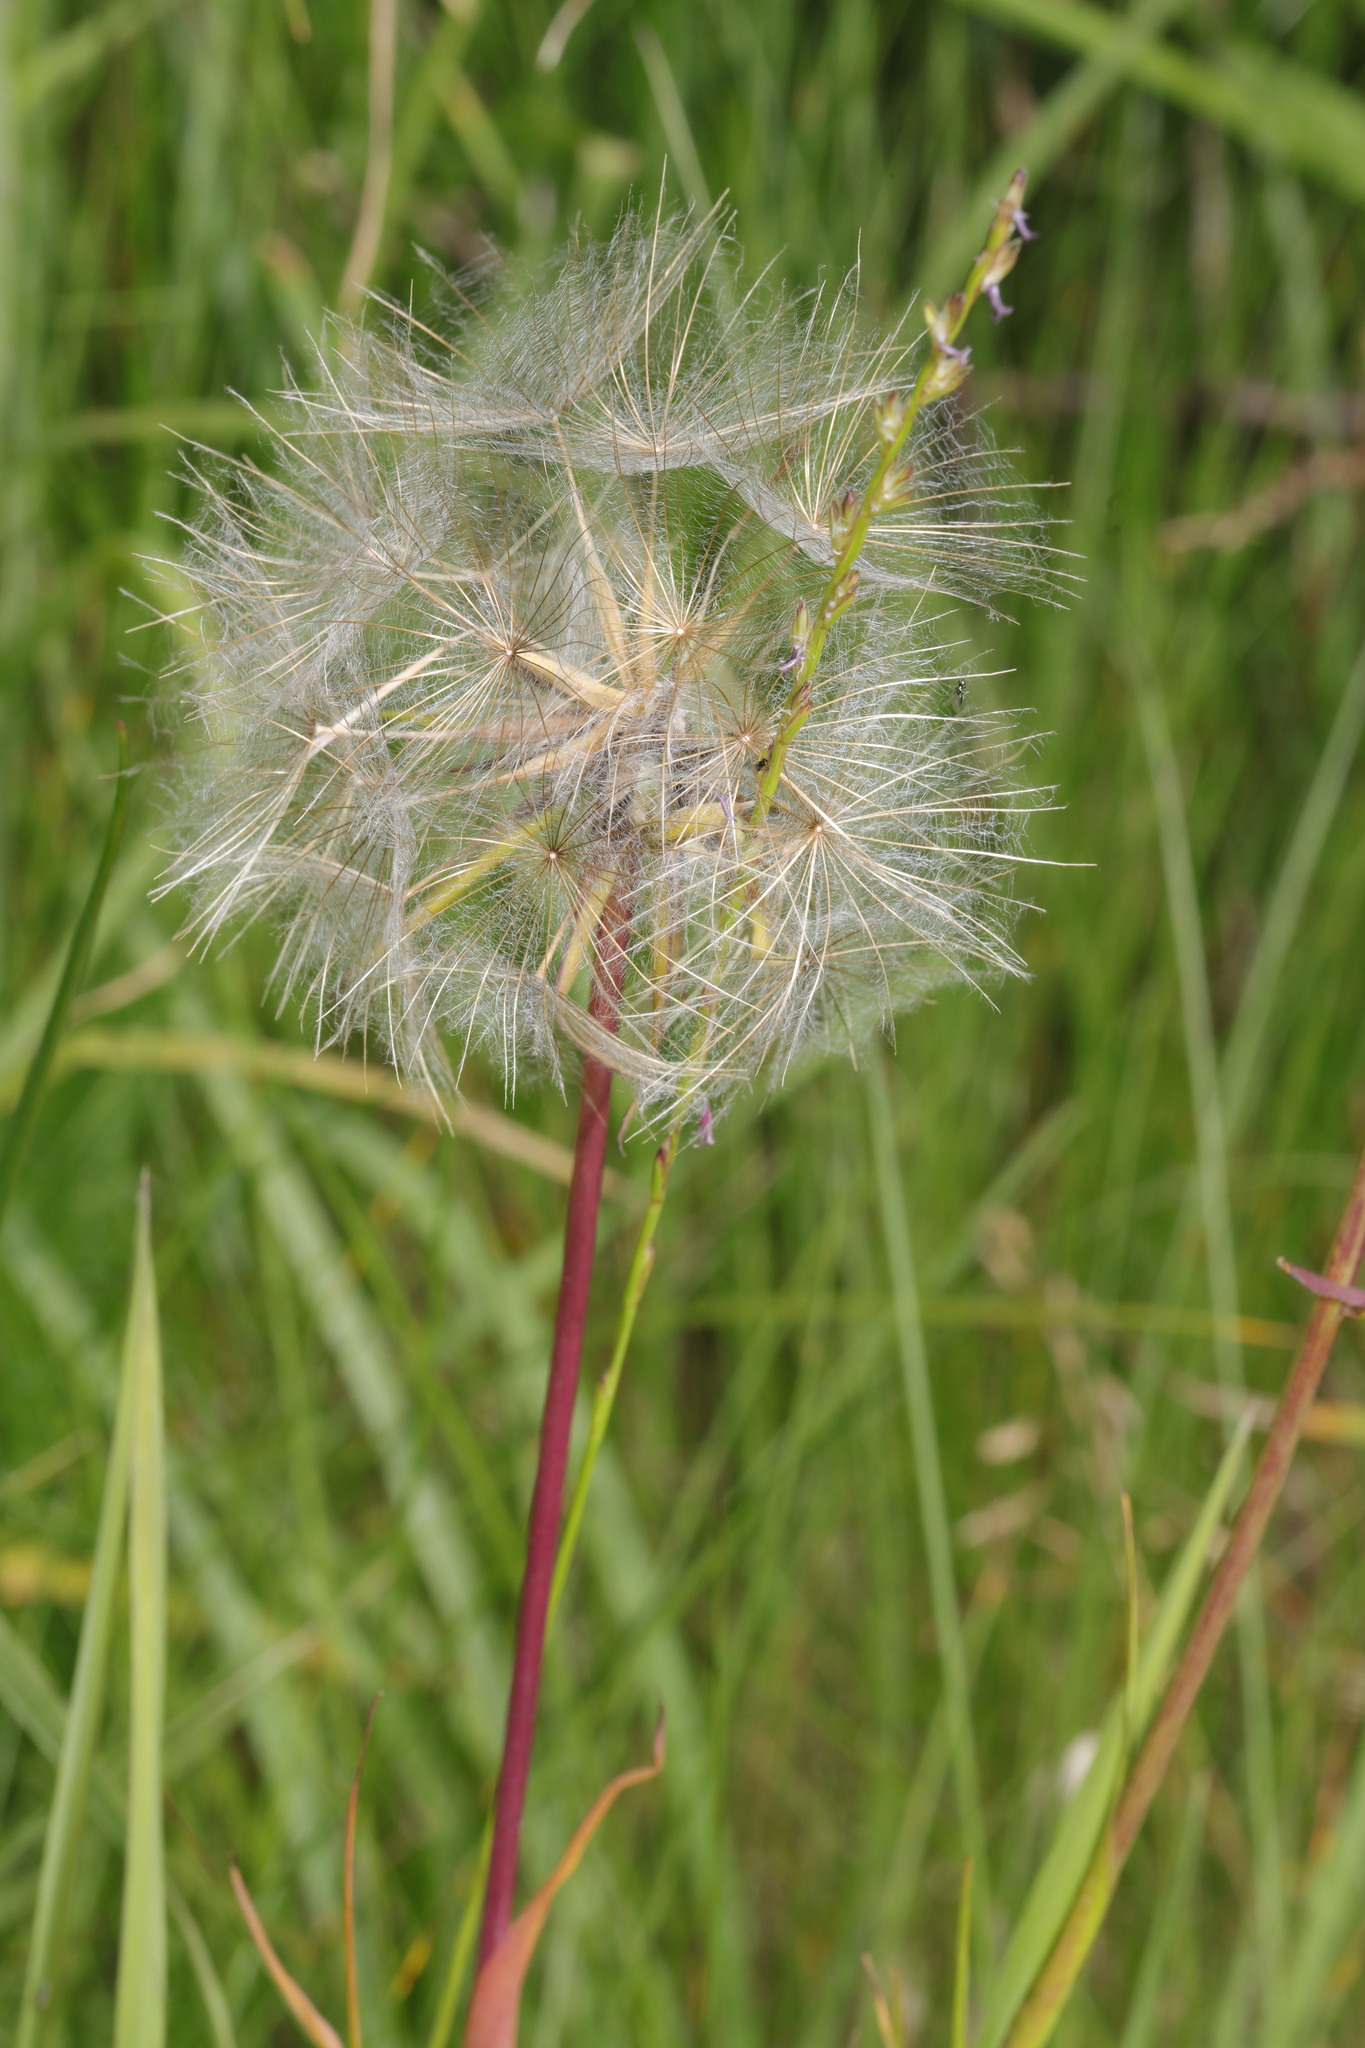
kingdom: Plantae
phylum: Tracheophyta
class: Magnoliopsida
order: Asterales
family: Asteraceae
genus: Tragopogon
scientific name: Tragopogon pratensis
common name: Goat's-beard
